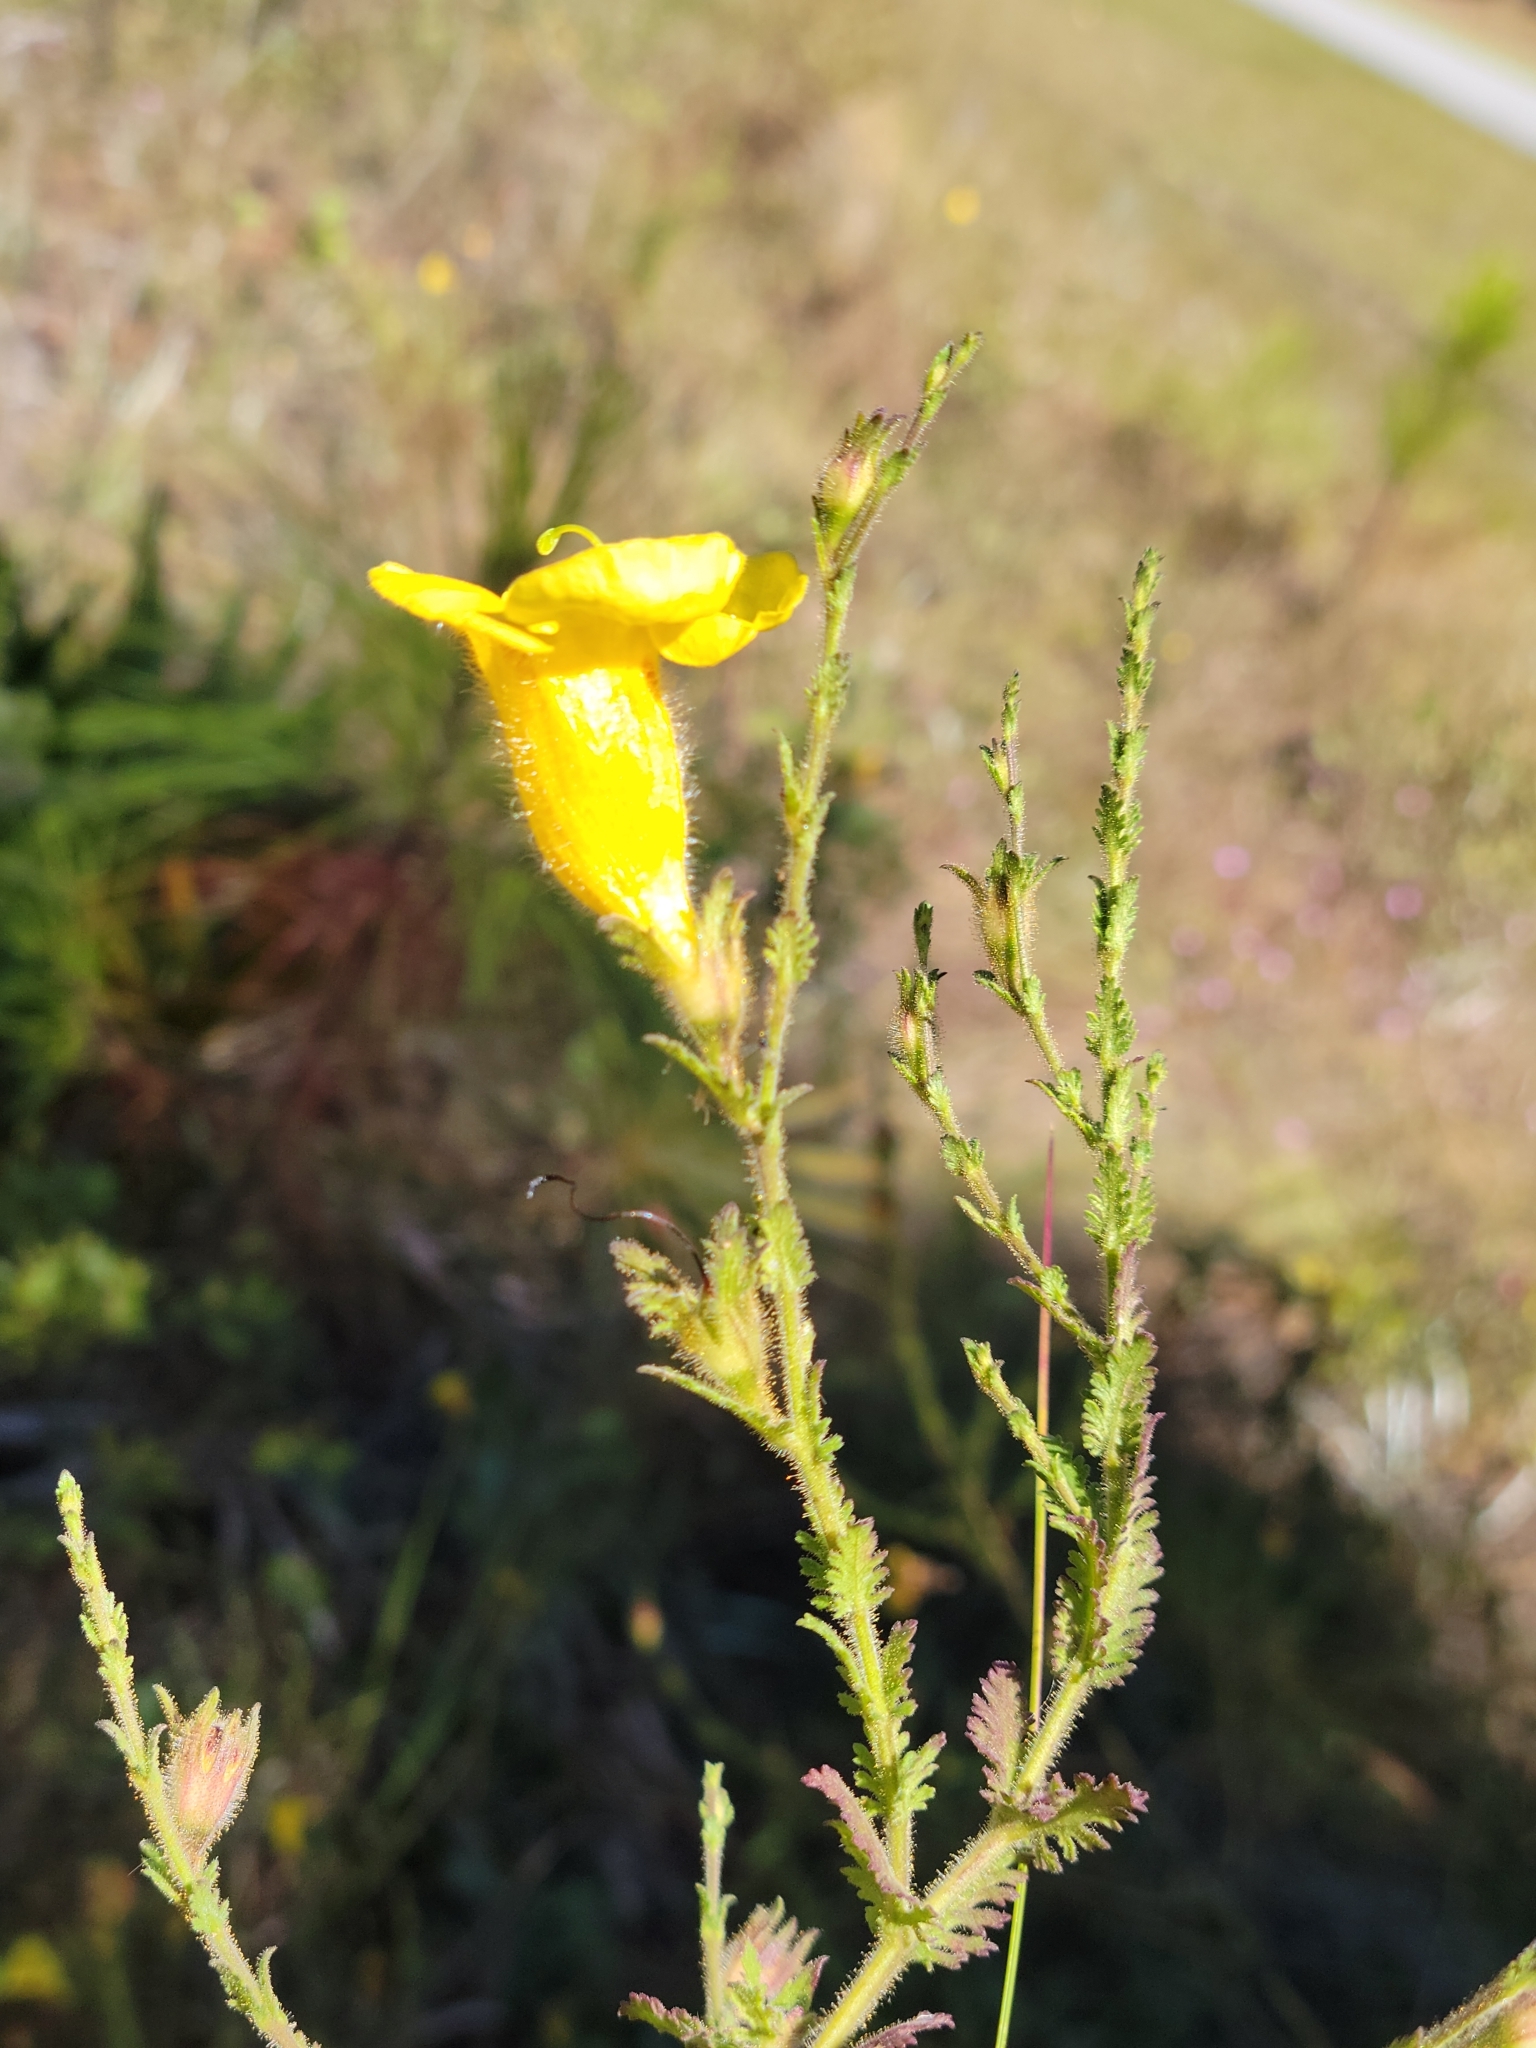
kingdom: Plantae
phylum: Tracheophyta
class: Magnoliopsida
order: Lamiales
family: Orobanchaceae
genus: Aureolaria
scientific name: Aureolaria pectinata
